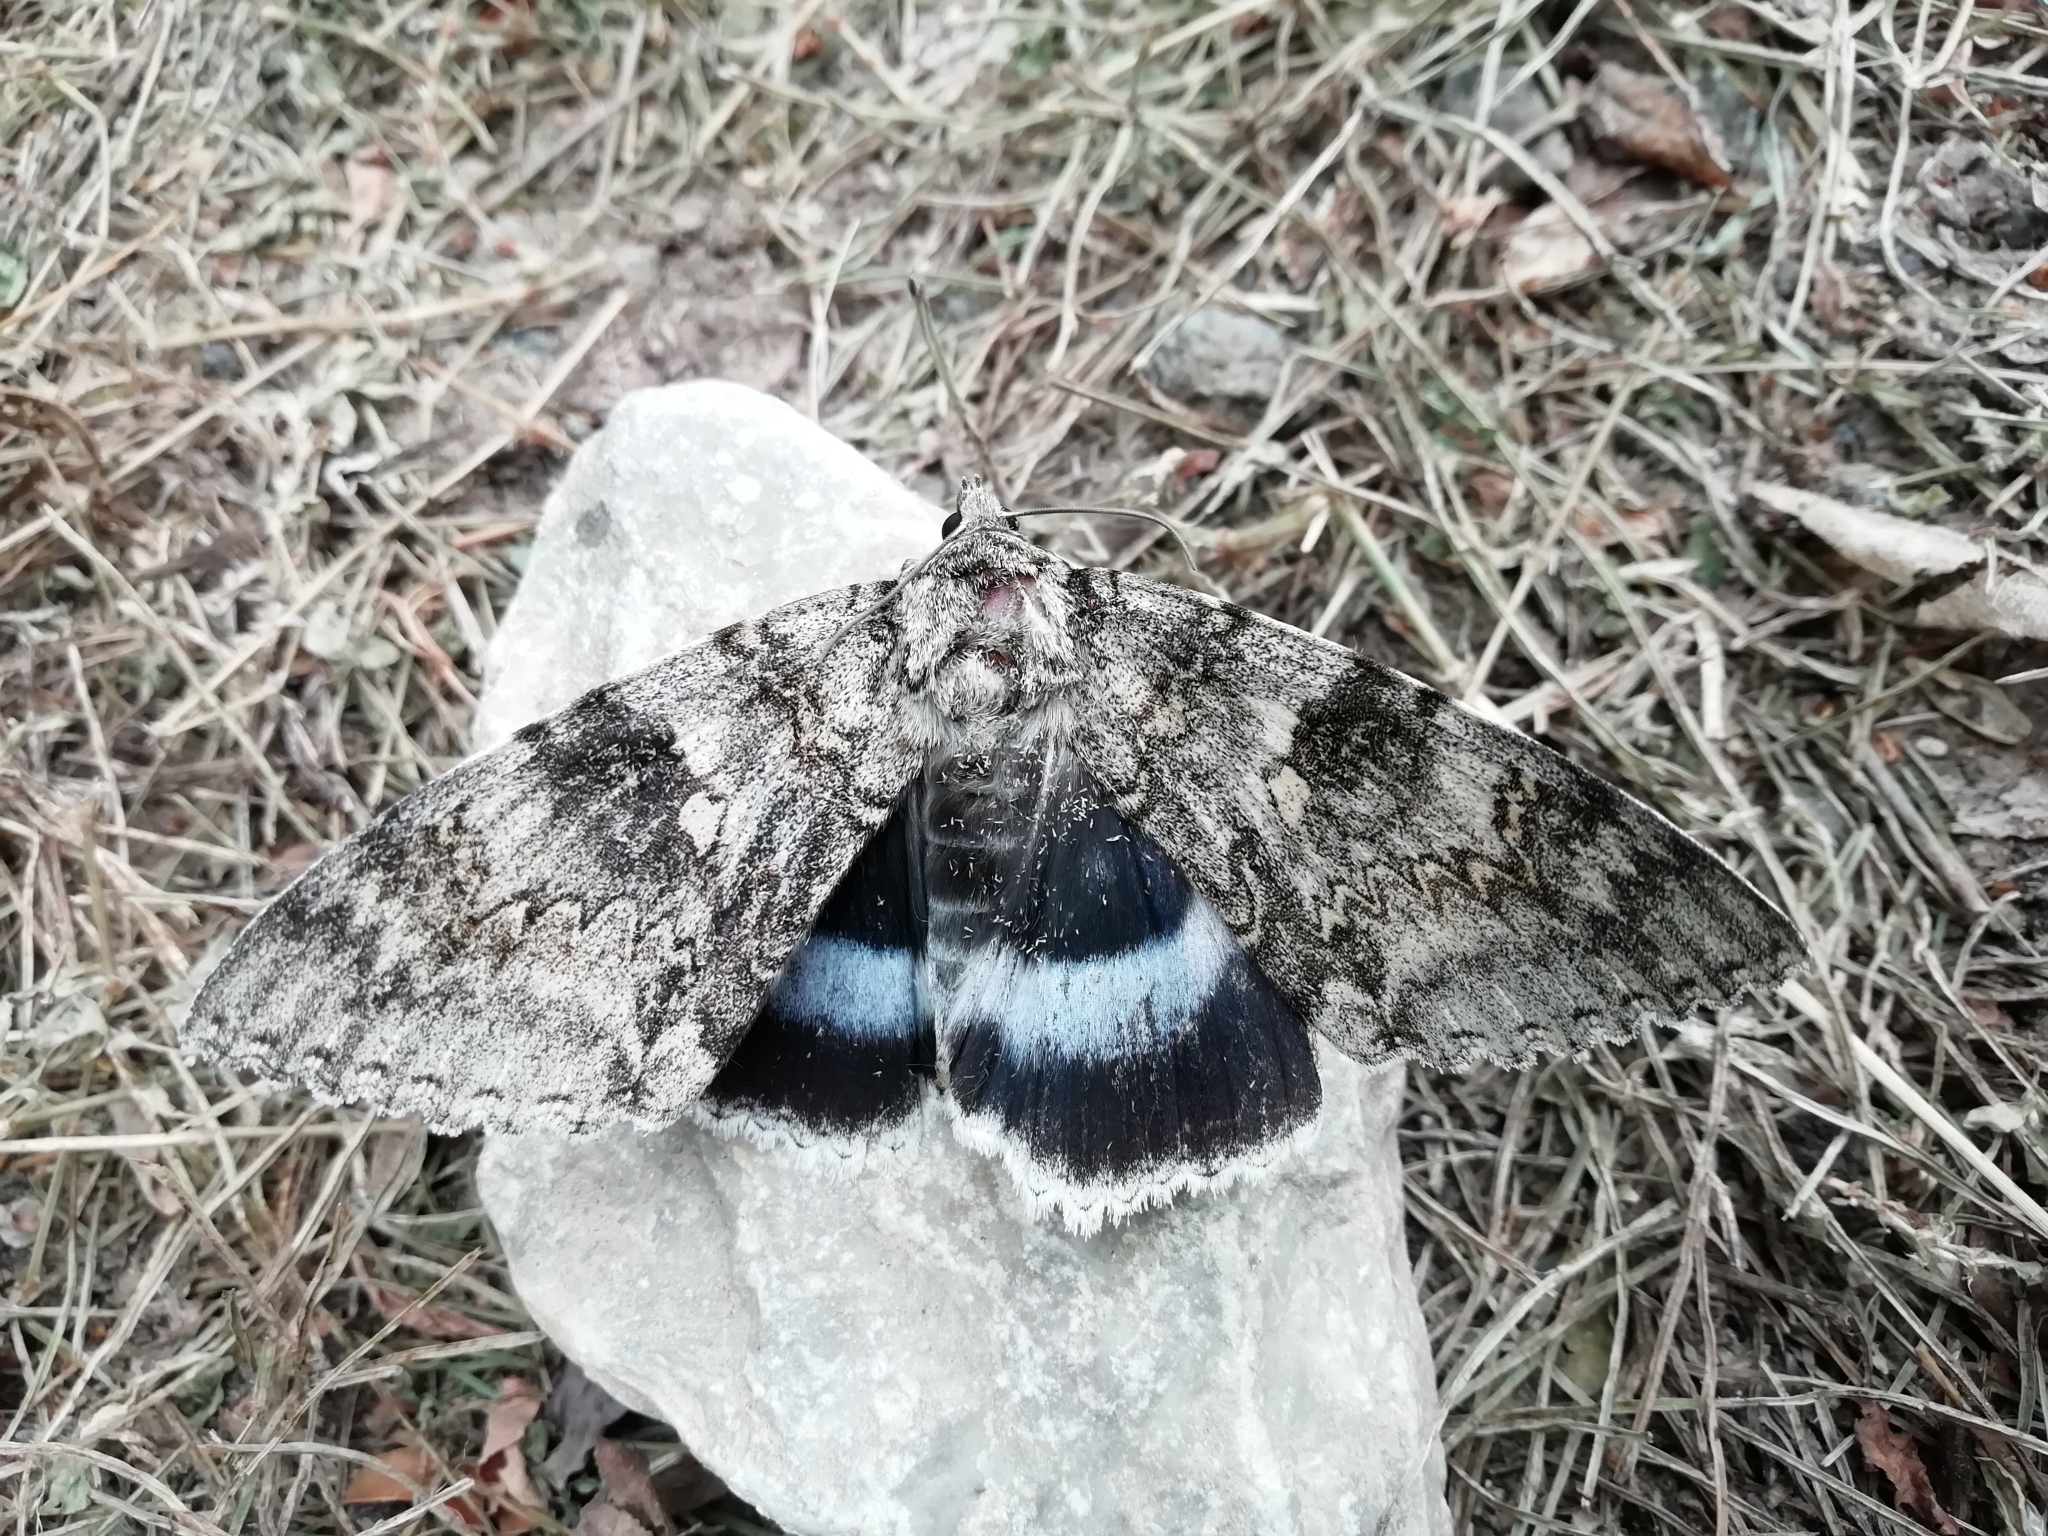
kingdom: Animalia
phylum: Arthropoda
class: Insecta
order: Lepidoptera
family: Erebidae
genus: Catocala
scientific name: Catocala fraxini
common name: Clifden nonpareil
